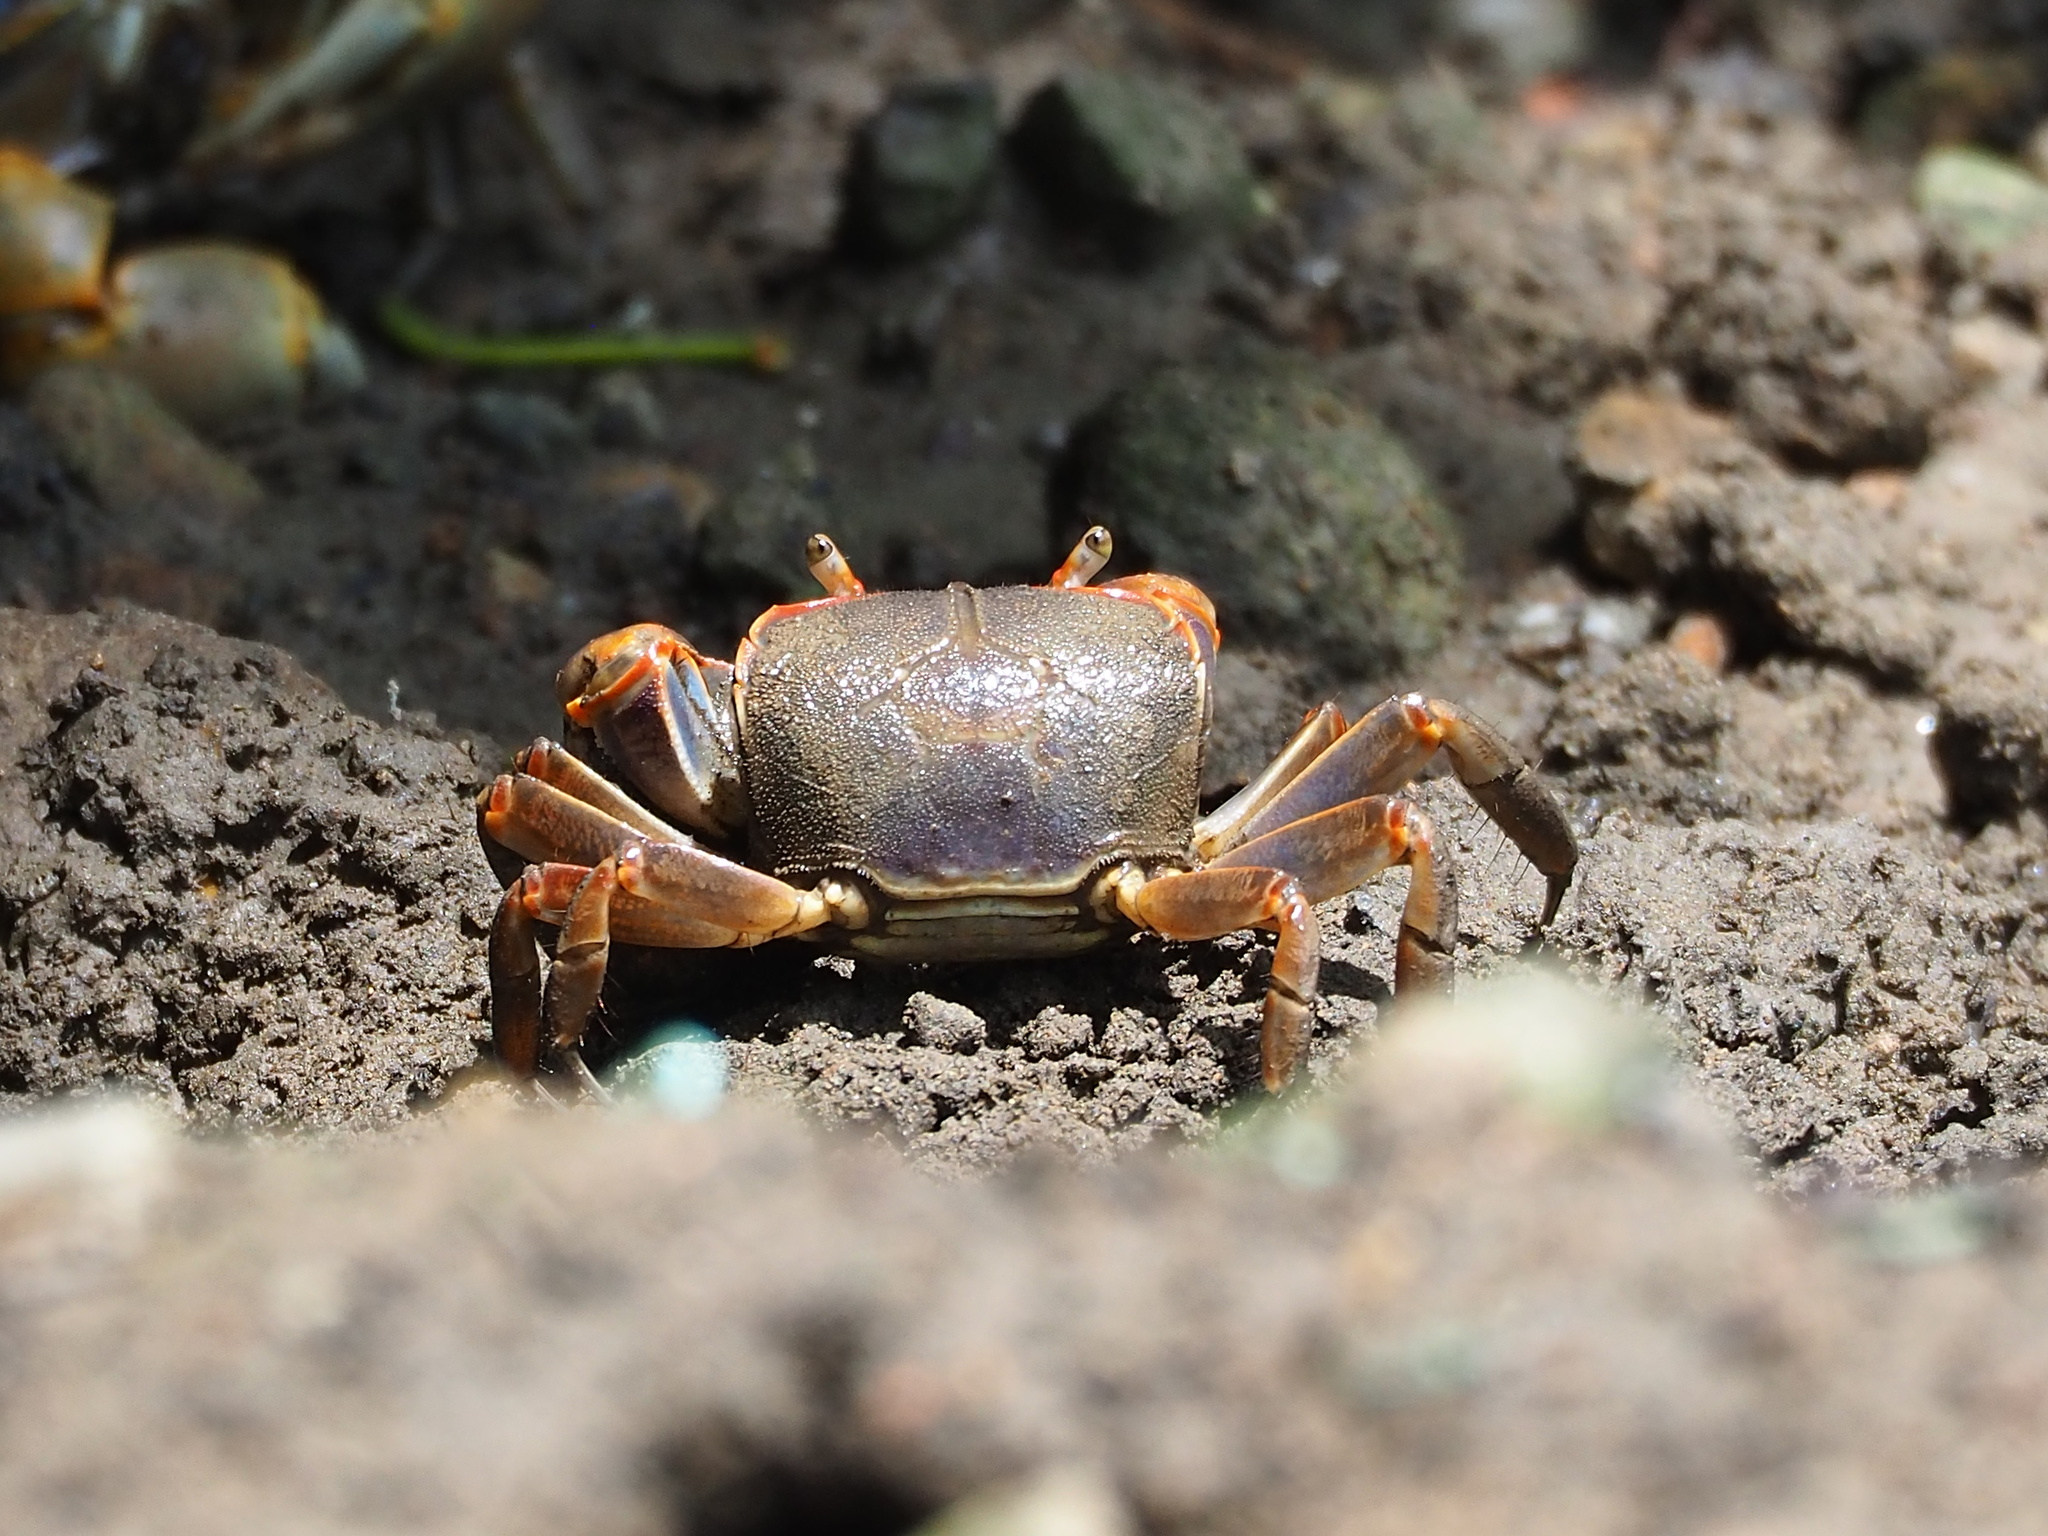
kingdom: Animalia
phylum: Arthropoda
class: Malacostraca
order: Decapoda
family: Varunidae
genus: Chasmagnathus
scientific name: Chasmagnathus convexus
